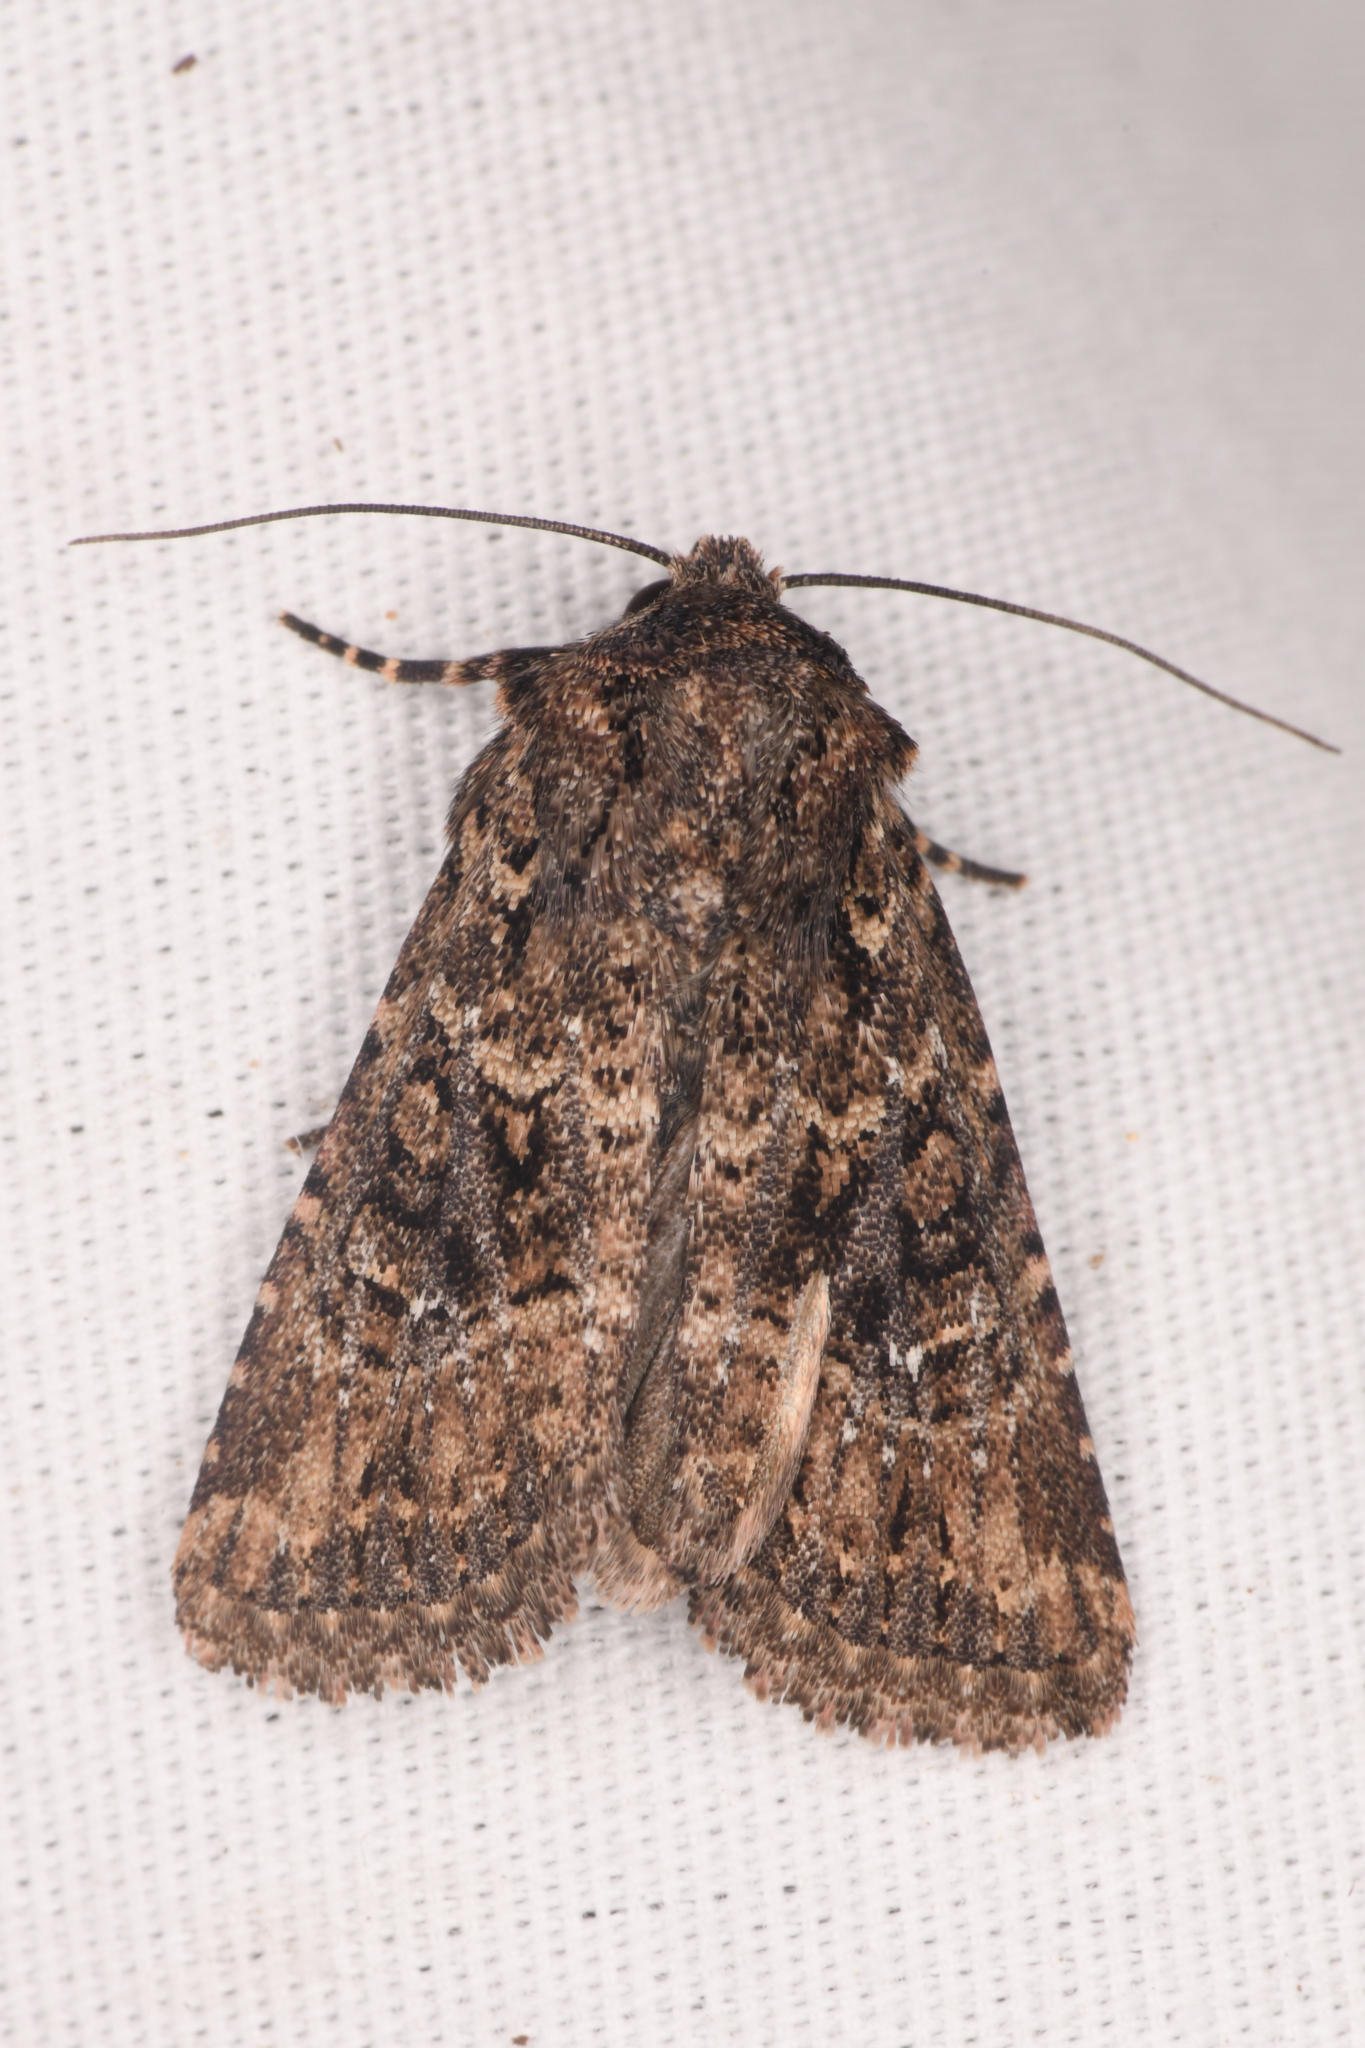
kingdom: Animalia
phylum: Arthropoda
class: Insecta
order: Lepidoptera
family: Noctuidae
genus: Hexorthodes
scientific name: Hexorthodes nipana
